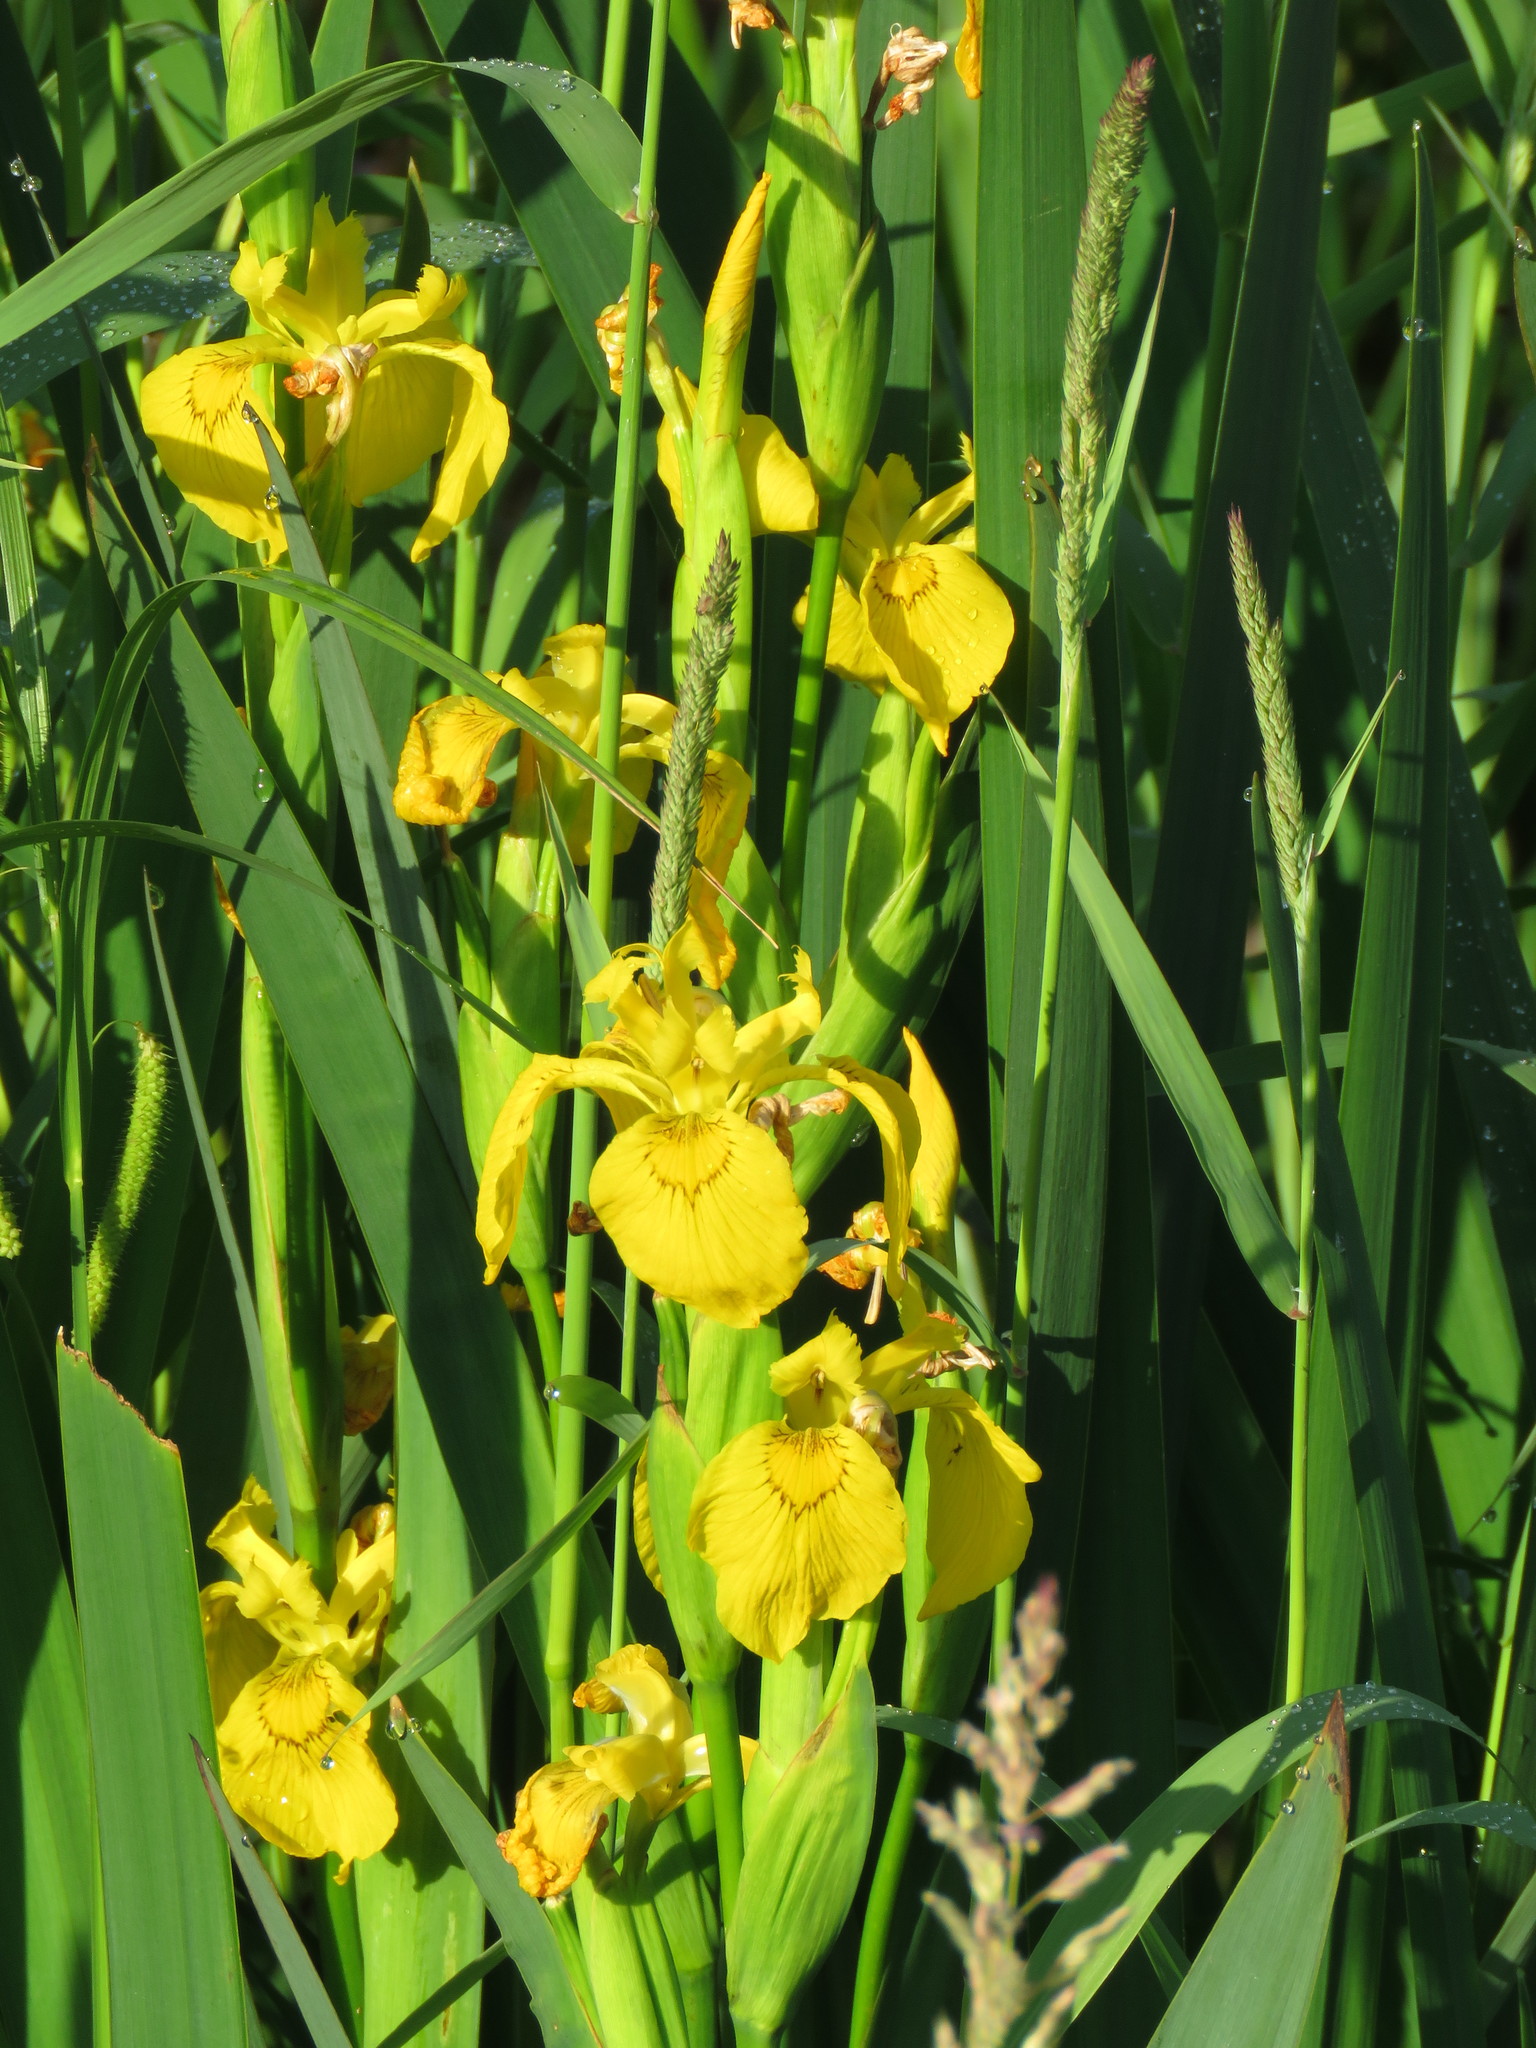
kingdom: Plantae
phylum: Tracheophyta
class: Liliopsida
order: Asparagales
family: Iridaceae
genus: Iris
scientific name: Iris pseudacorus
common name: Yellow flag
